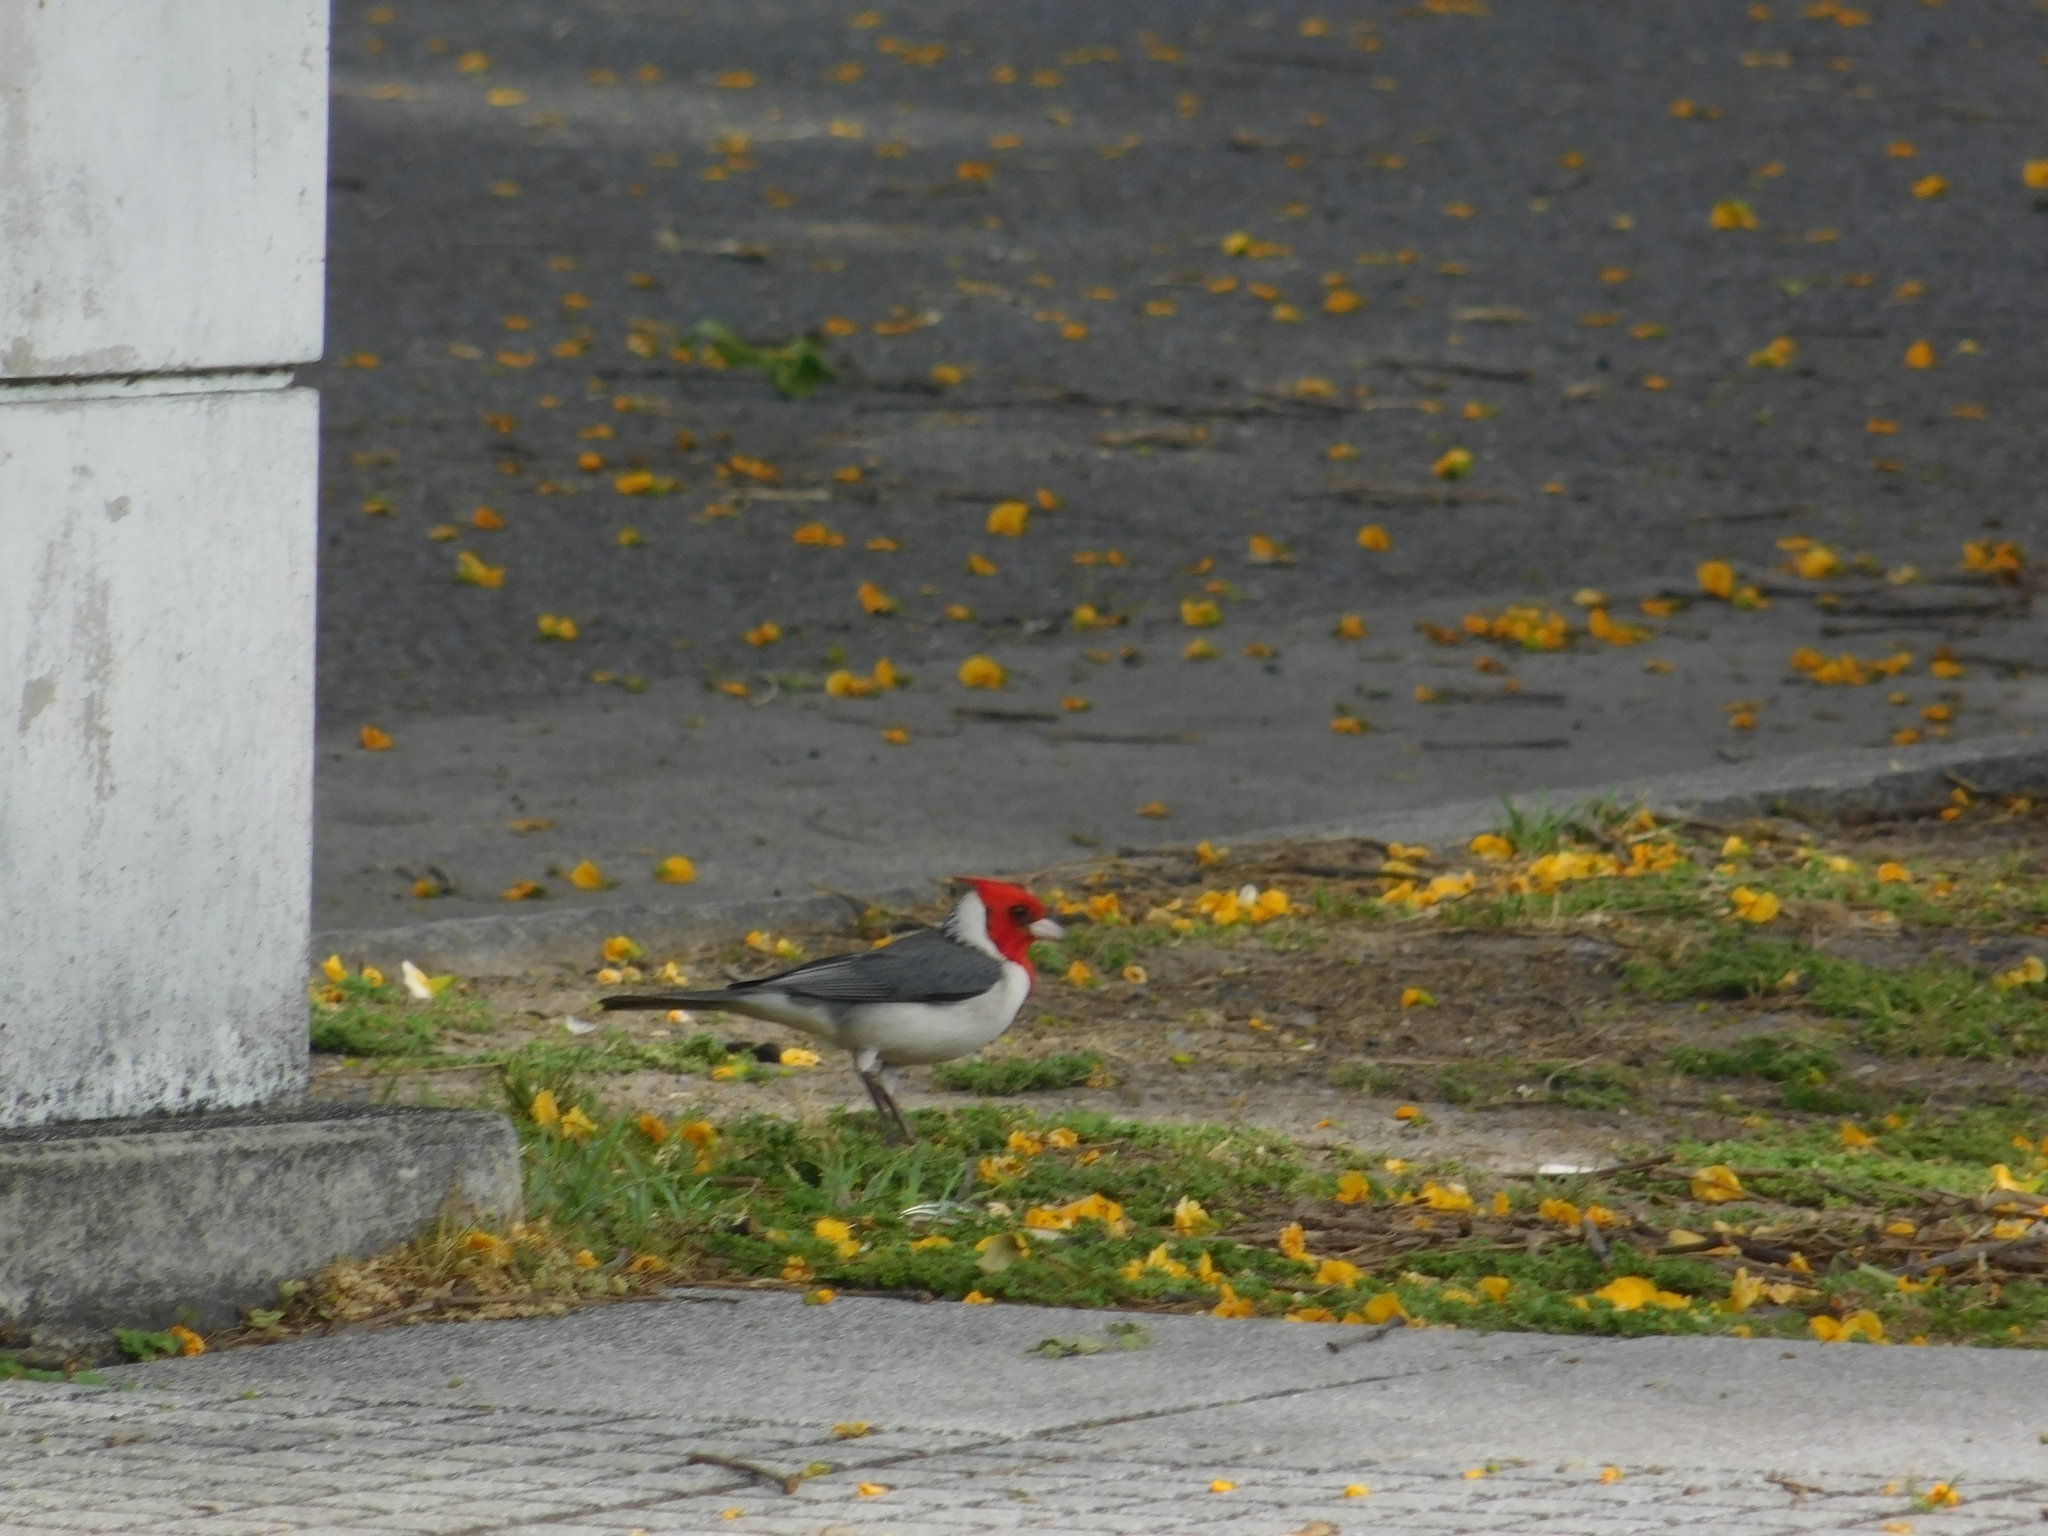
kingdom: Animalia
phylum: Chordata
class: Aves
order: Passeriformes
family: Thraupidae
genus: Paroaria
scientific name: Paroaria coronata
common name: Red-crested cardinal
